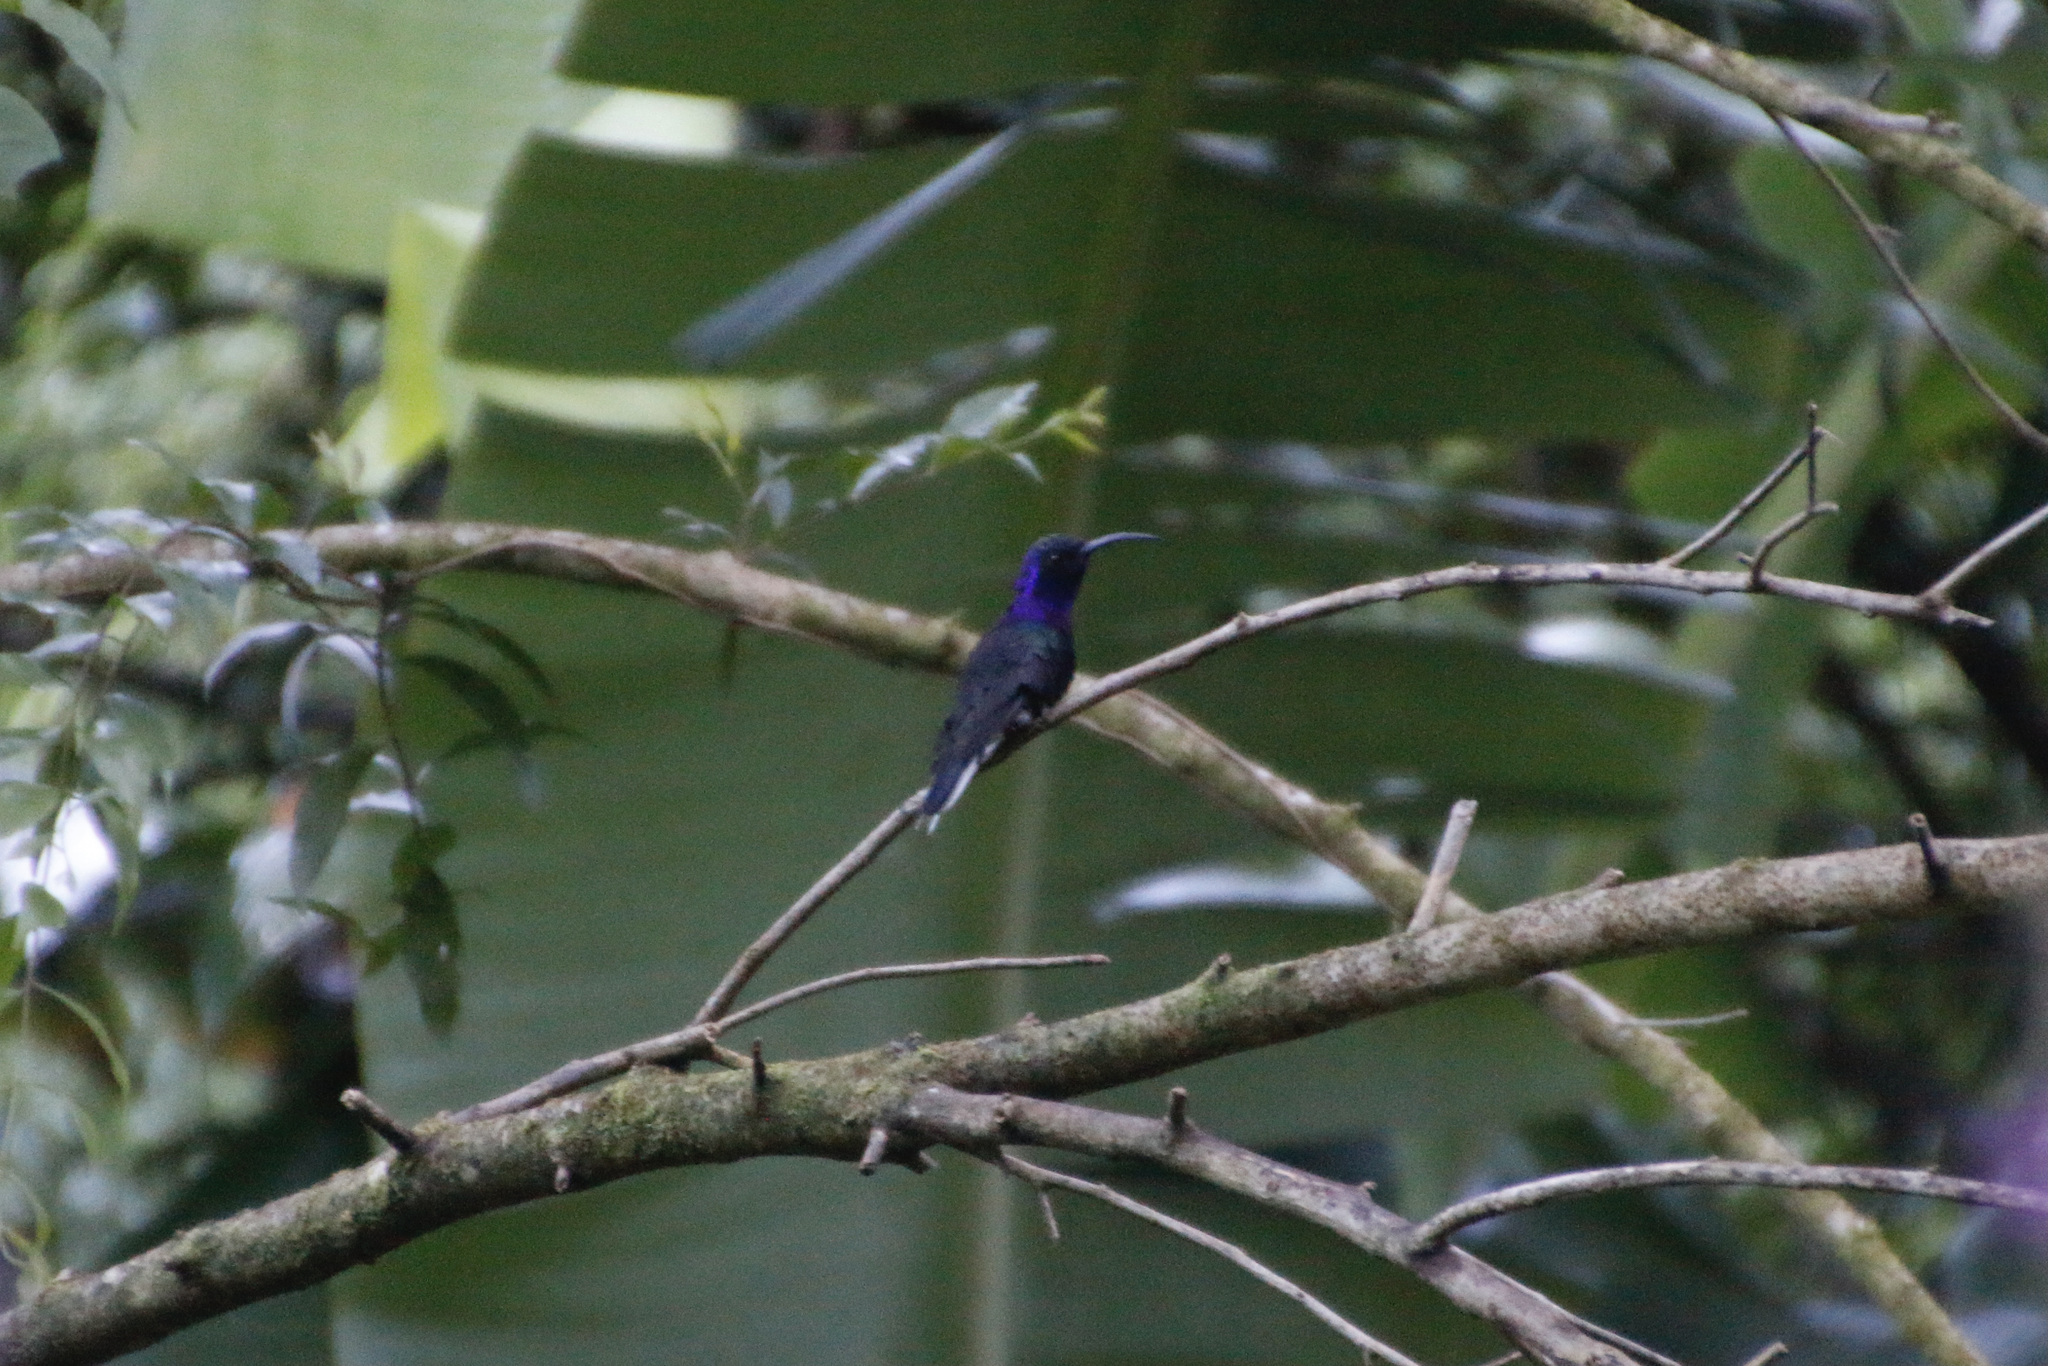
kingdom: Animalia
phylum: Chordata
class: Aves
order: Apodiformes
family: Trochilidae
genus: Campylopterus
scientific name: Campylopterus hemileucurus
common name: Violet sabrewing
